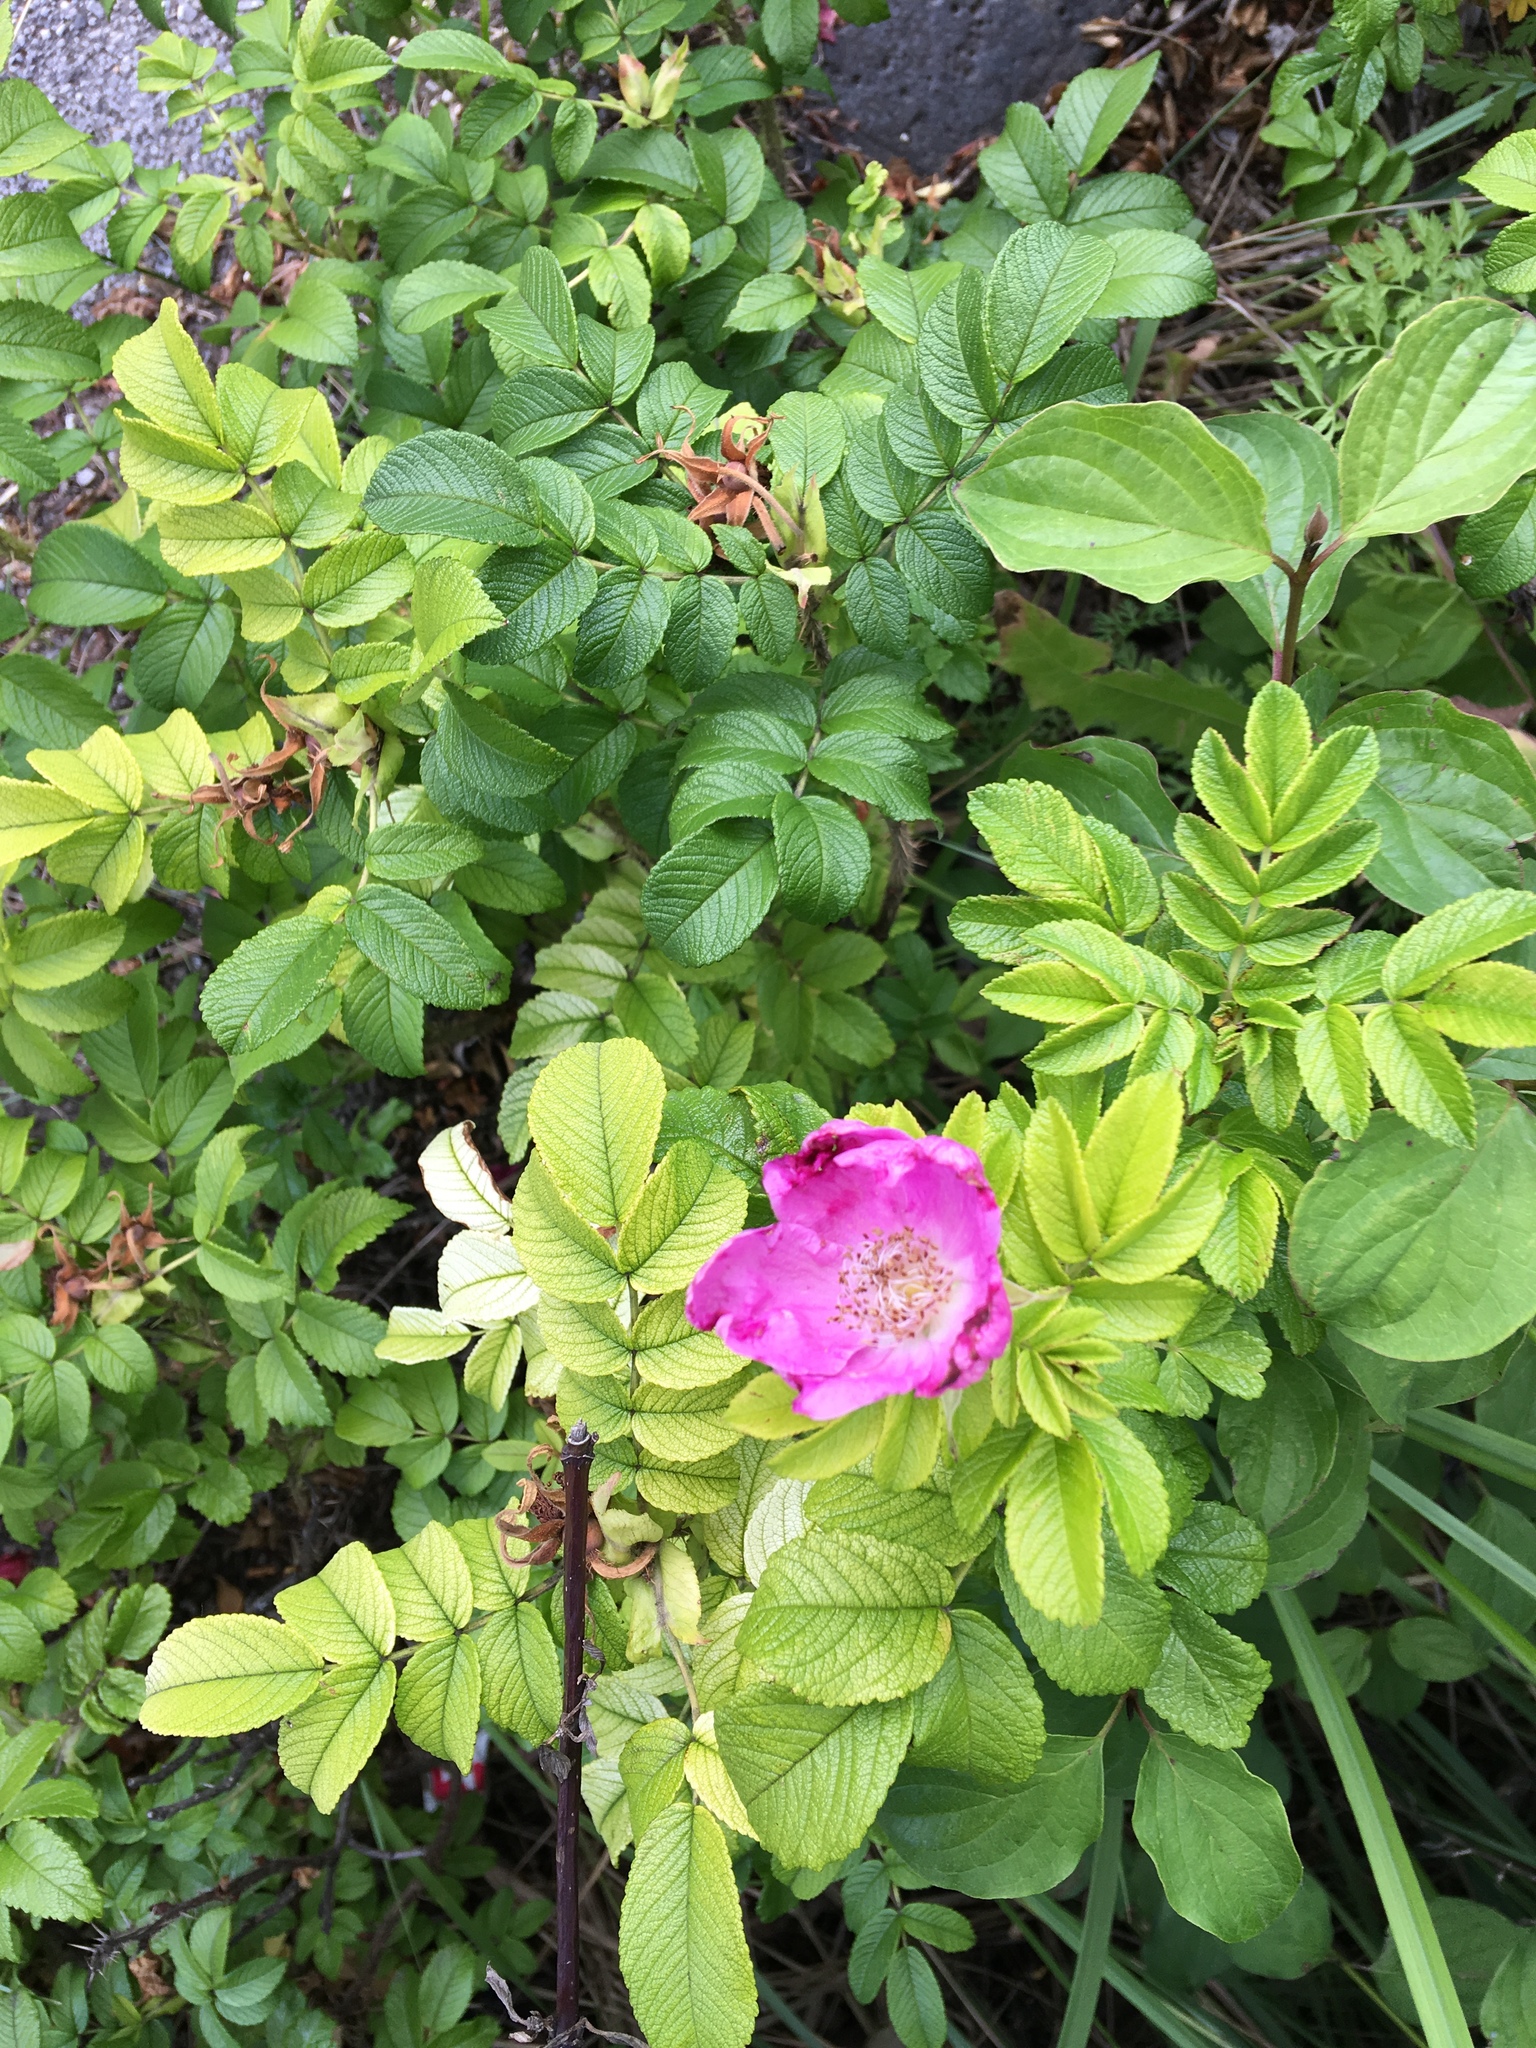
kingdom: Plantae
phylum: Tracheophyta
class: Magnoliopsida
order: Rosales
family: Rosaceae
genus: Rosa
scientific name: Rosa rugosa
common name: Japanese rose
